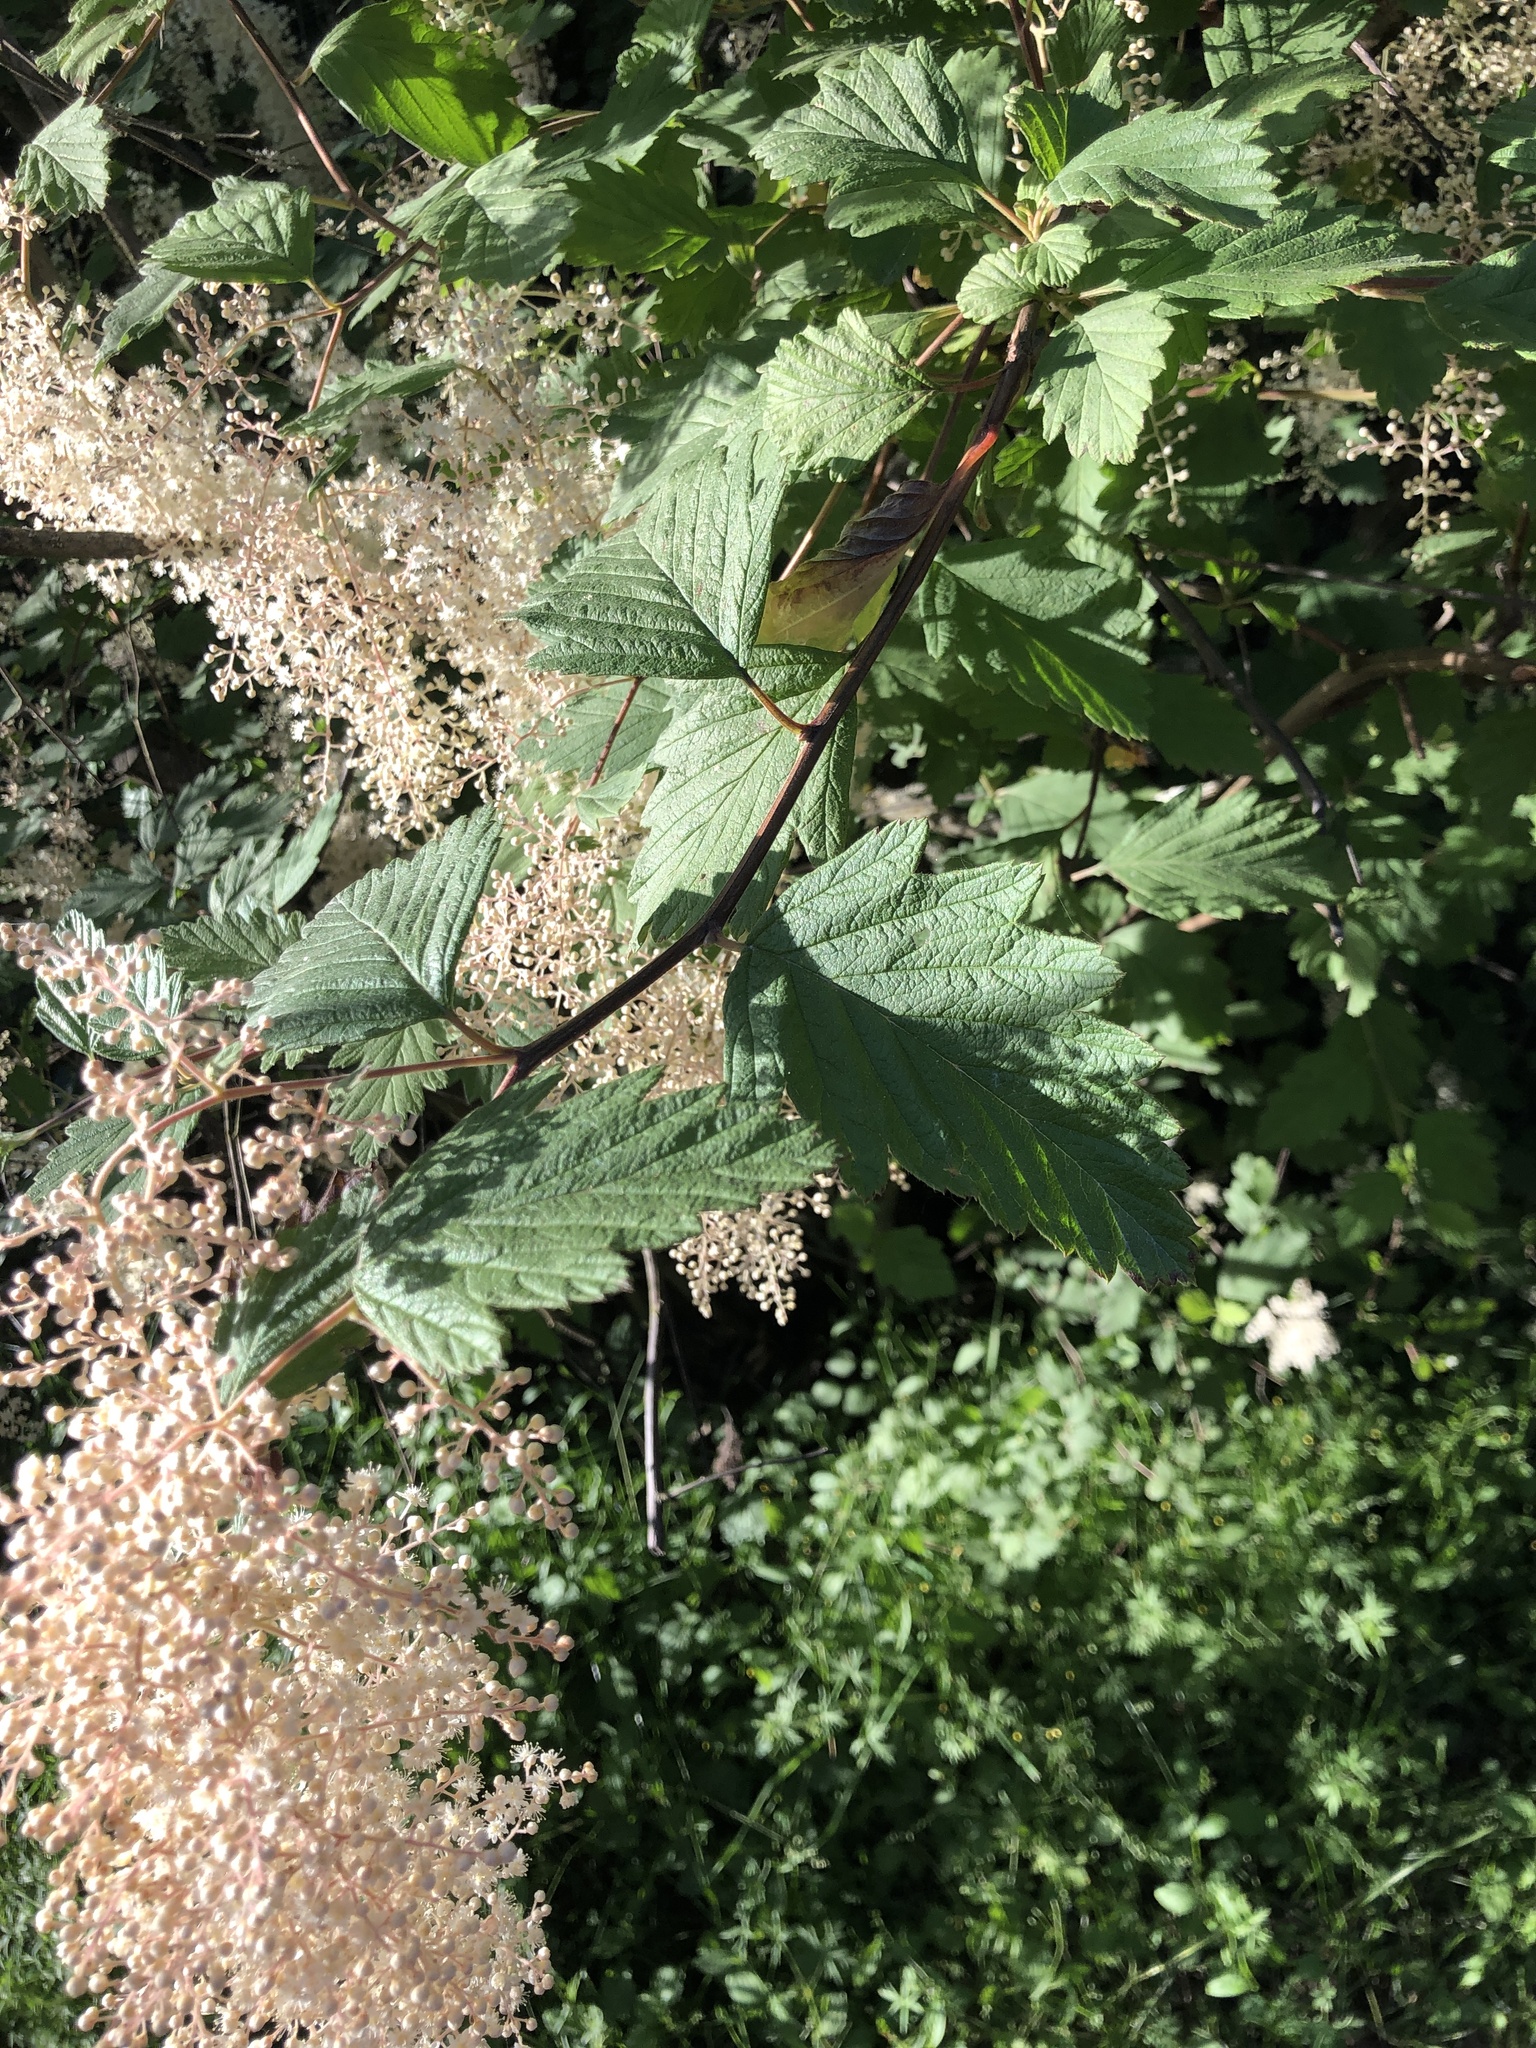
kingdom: Plantae
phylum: Tracheophyta
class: Magnoliopsida
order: Rosales
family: Rosaceae
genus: Holodiscus
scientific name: Holodiscus discolor
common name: Oceanspray
